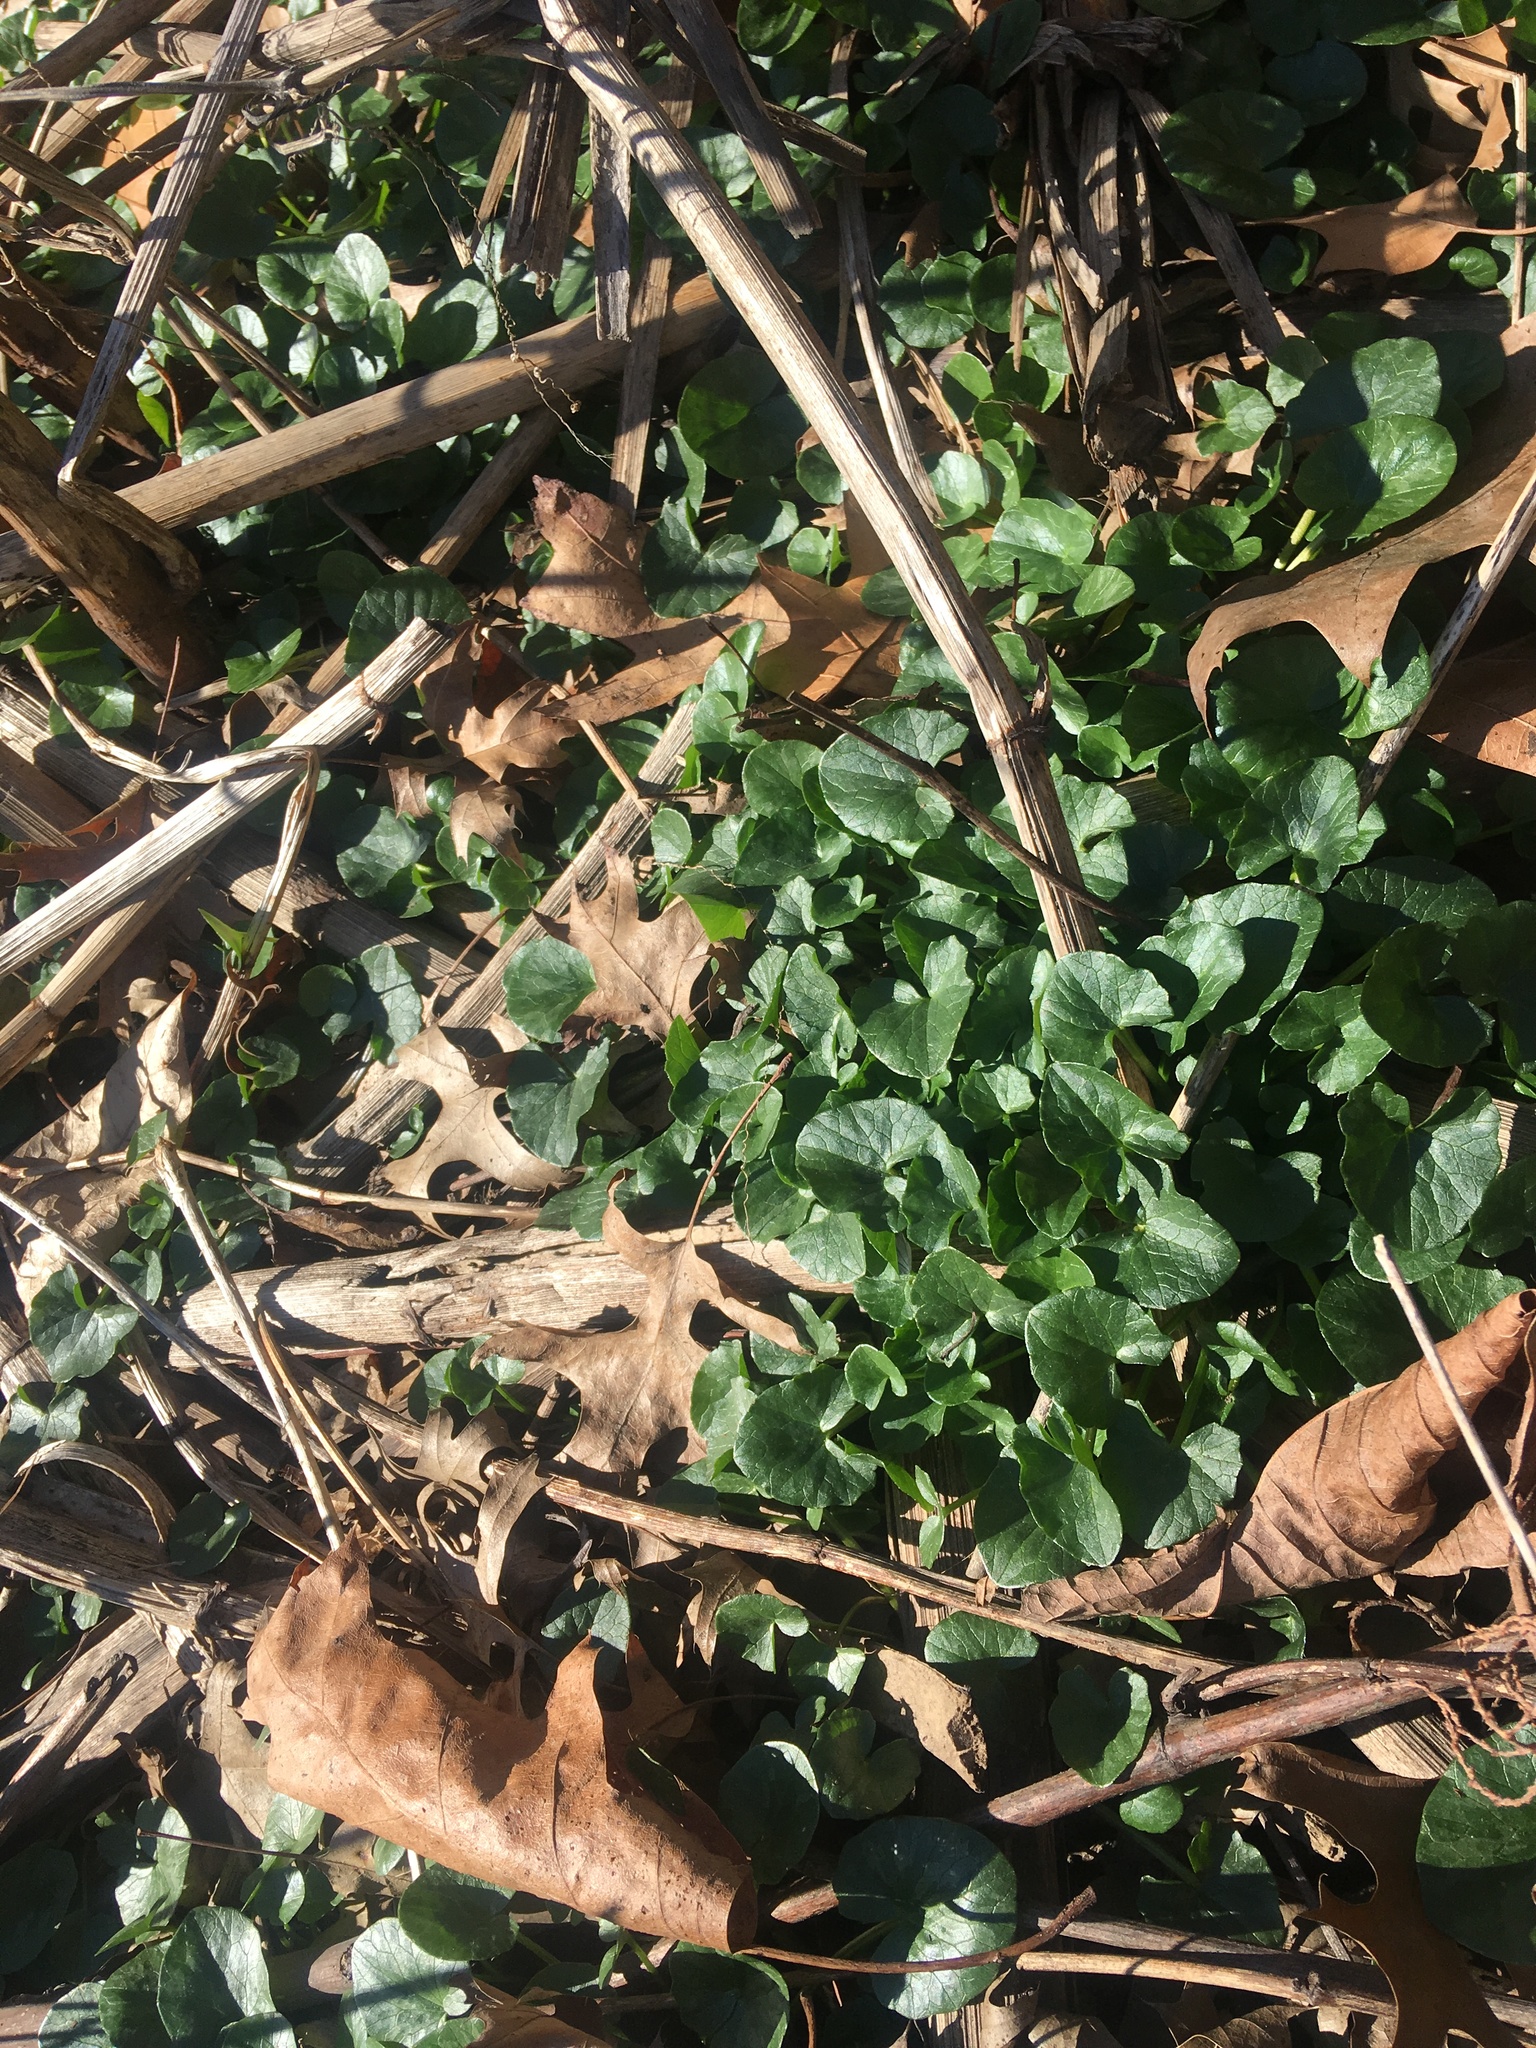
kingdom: Plantae
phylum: Tracheophyta
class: Magnoliopsida
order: Ranunculales
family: Ranunculaceae
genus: Ficaria
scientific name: Ficaria verna
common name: Lesser celandine
